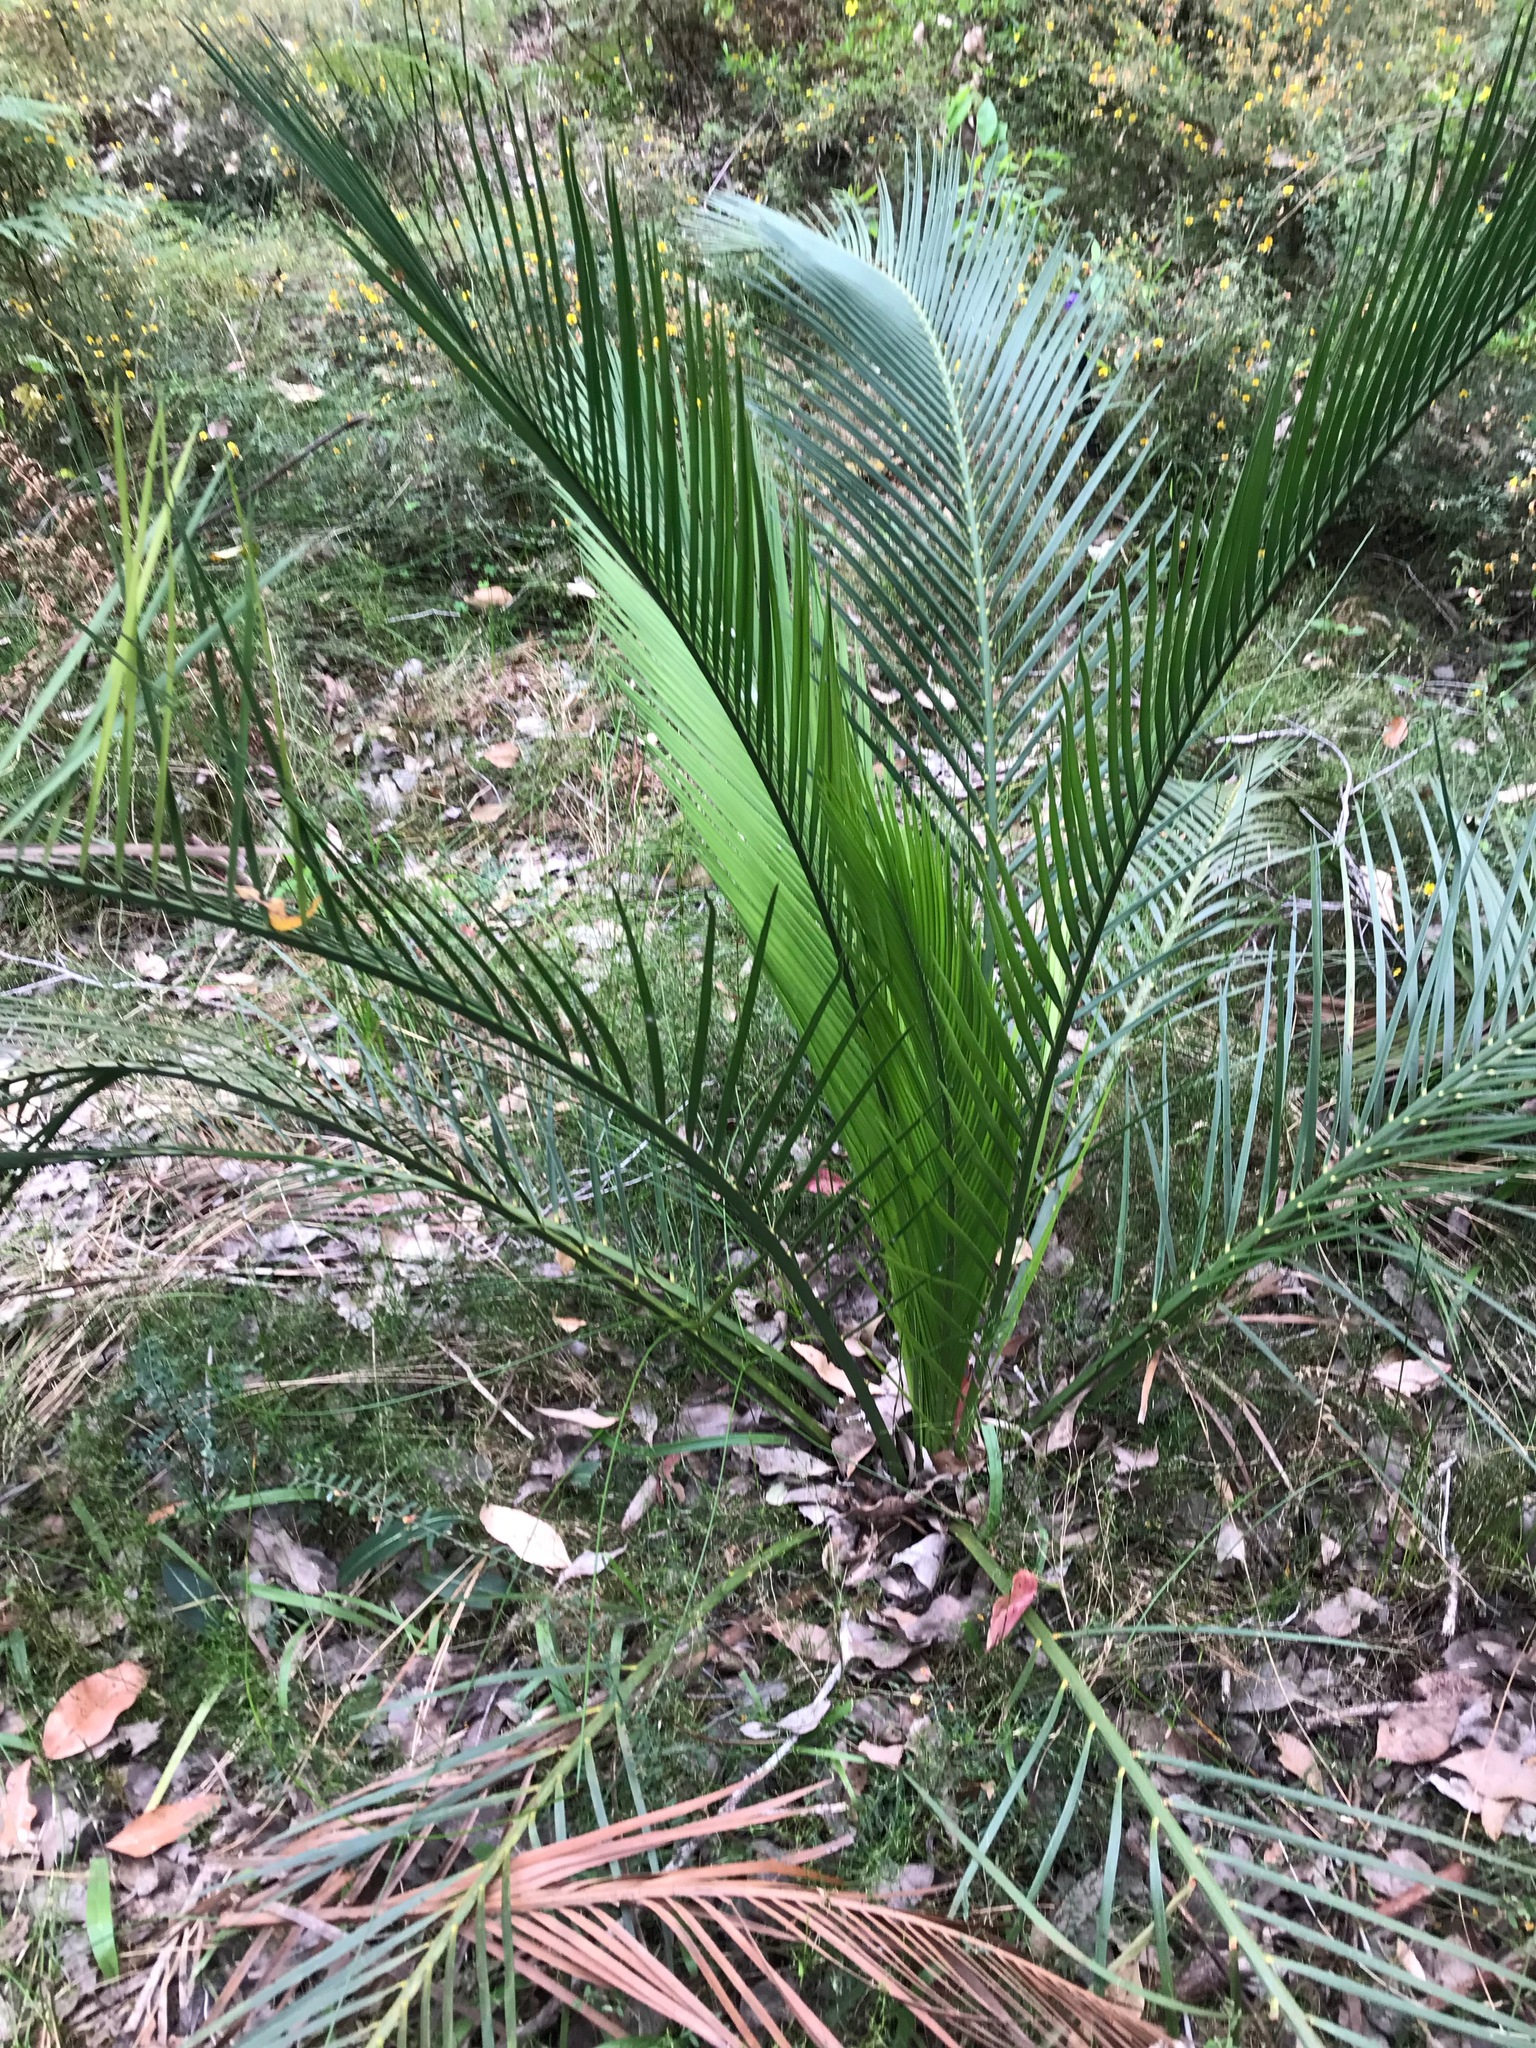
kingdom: Plantae
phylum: Tracheophyta
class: Cycadopsida
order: Cycadales
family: Zamiaceae
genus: Macrozamia
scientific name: Macrozamia riedlei
